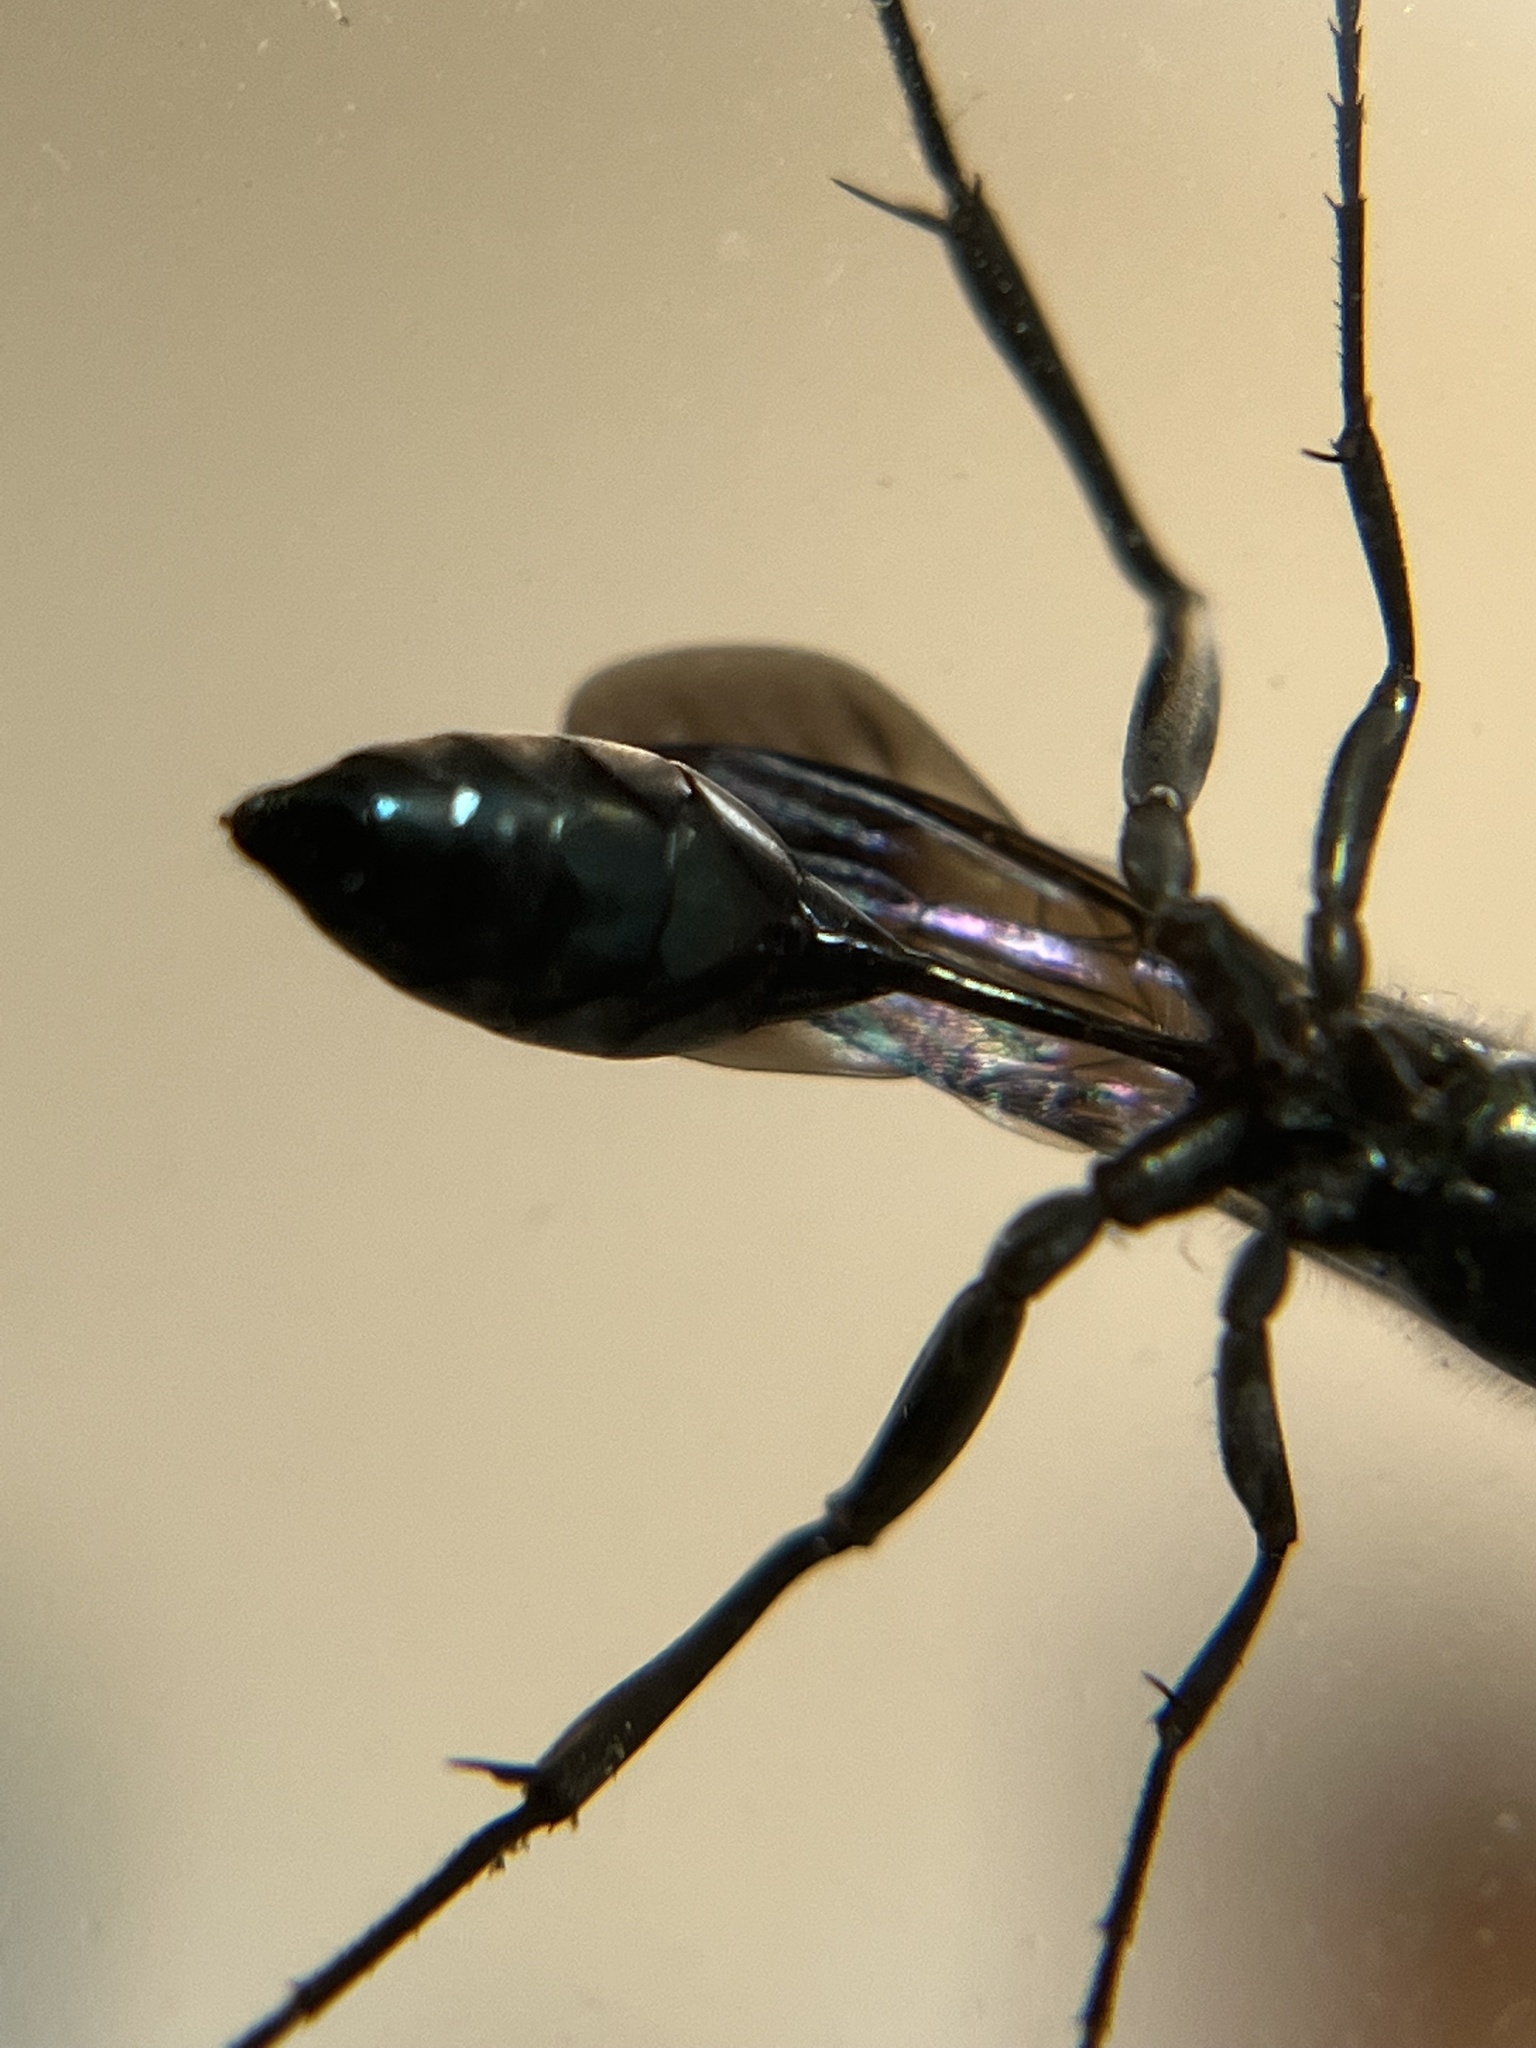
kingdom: Animalia
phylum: Arthropoda
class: Insecta
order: Hymenoptera
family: Sphecidae
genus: Chalybion
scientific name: Chalybion zimmermanni
